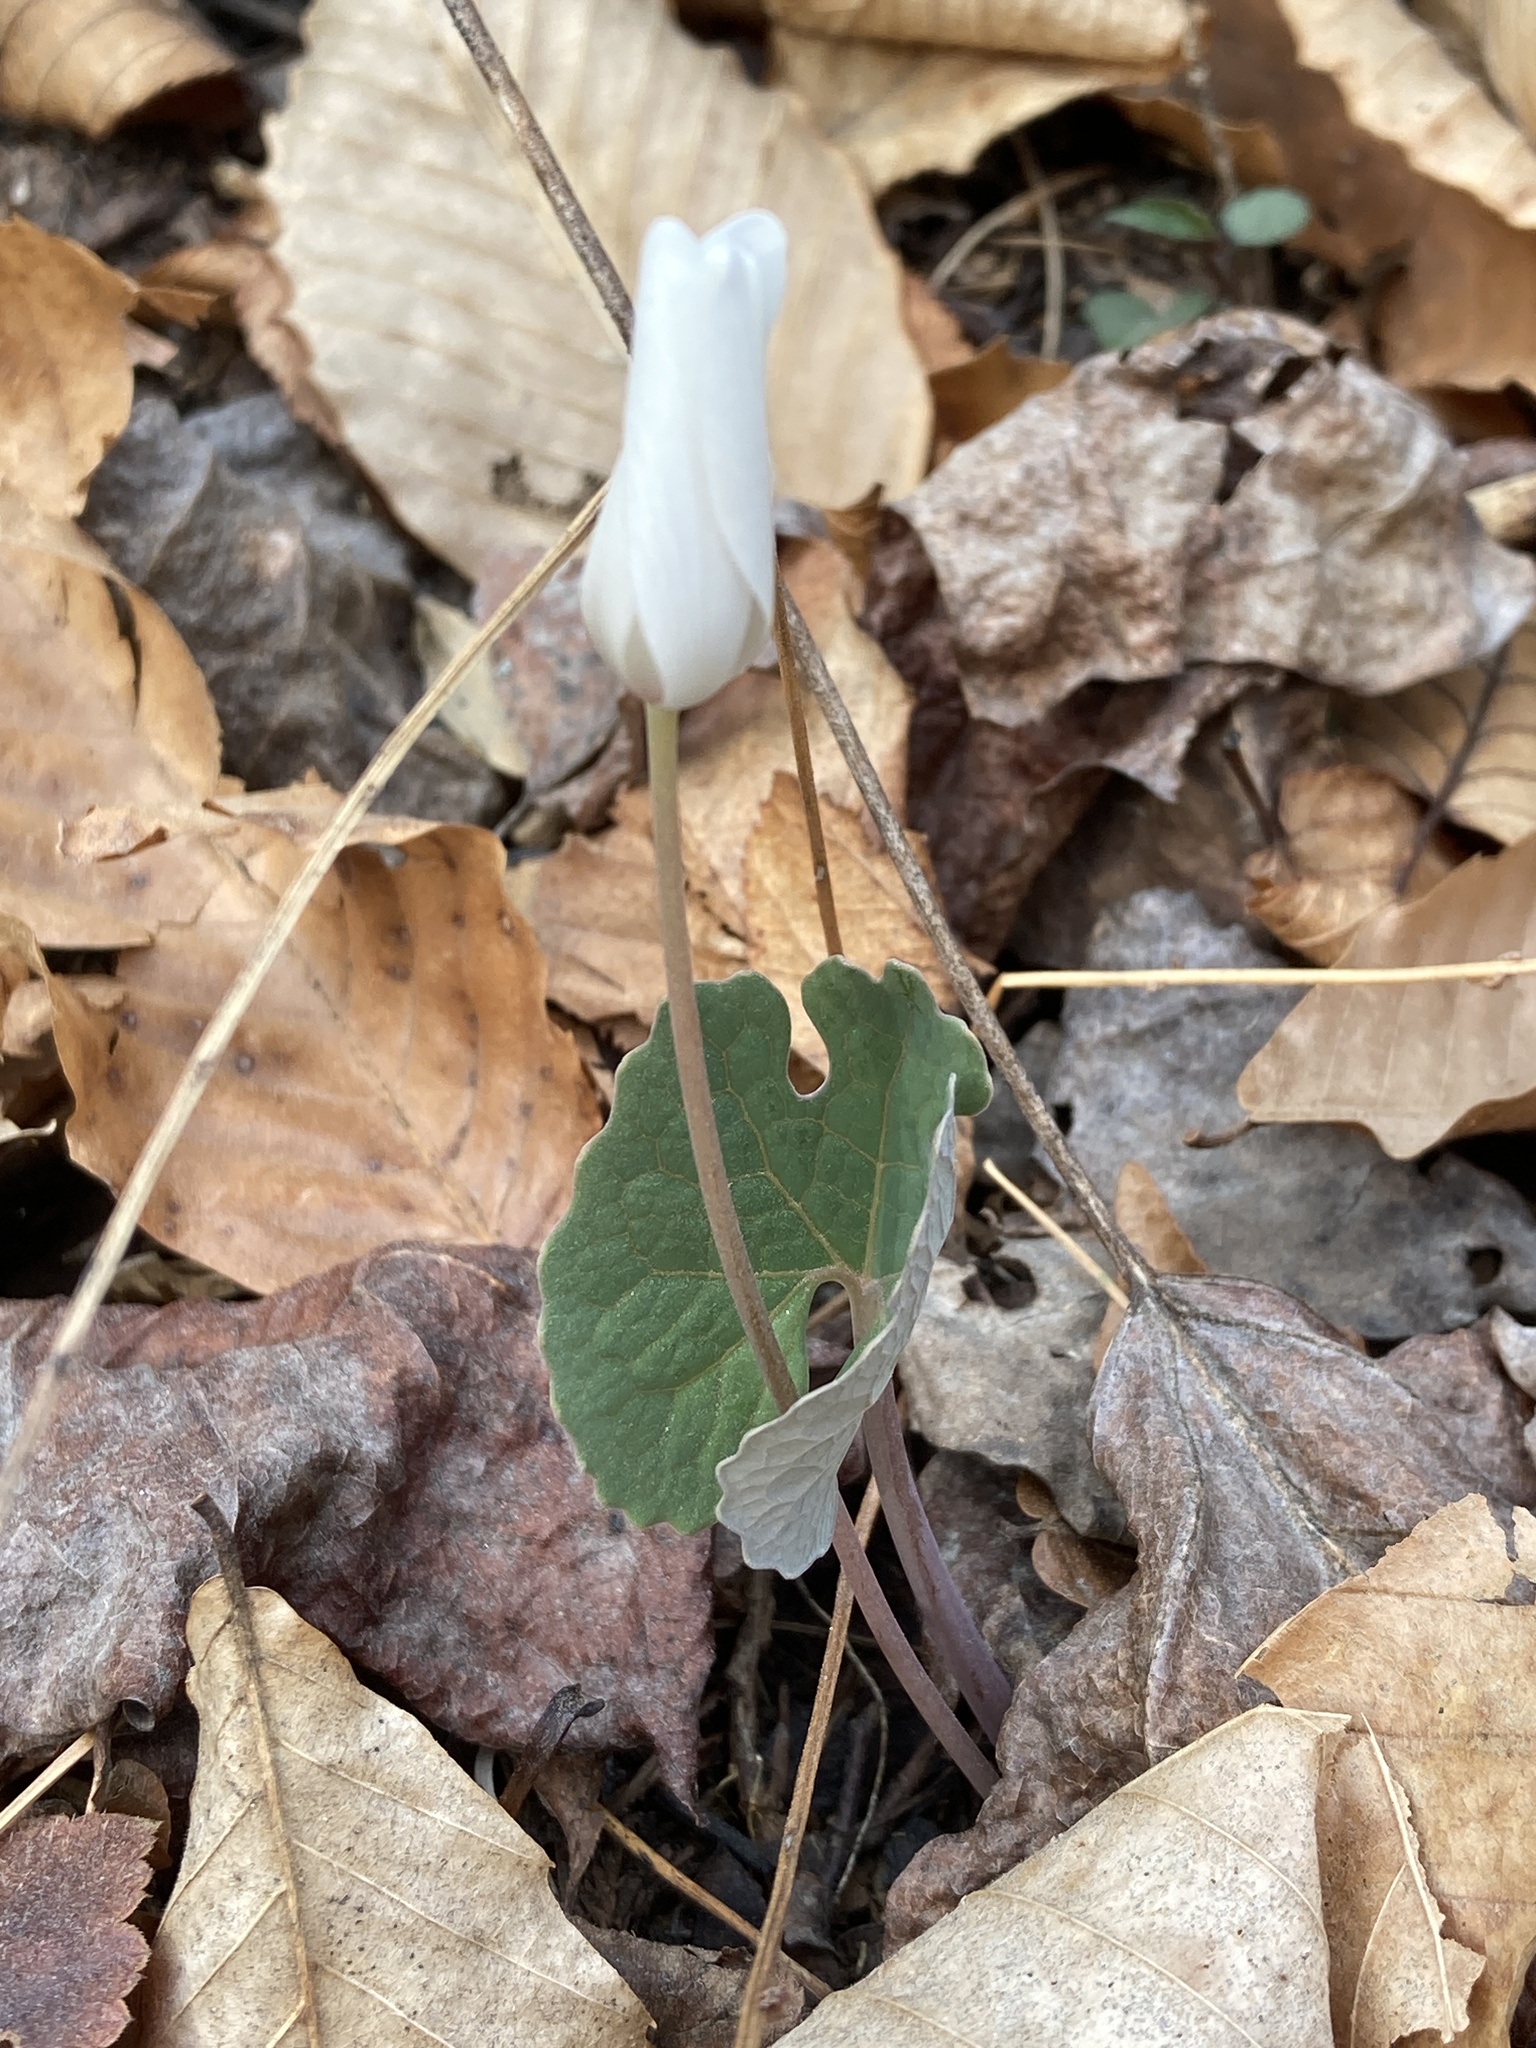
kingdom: Plantae
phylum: Tracheophyta
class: Magnoliopsida
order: Ranunculales
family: Papaveraceae
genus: Sanguinaria
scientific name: Sanguinaria canadensis
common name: Bloodroot
